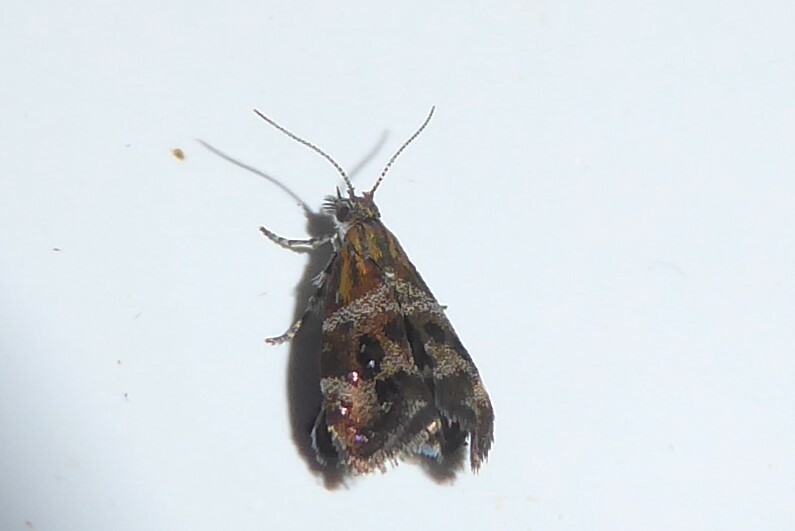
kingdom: Animalia
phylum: Arthropoda
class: Insecta
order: Lepidoptera
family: Choreutidae
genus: Tebenna
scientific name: Tebenna micalis
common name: Vagrant twitcher
